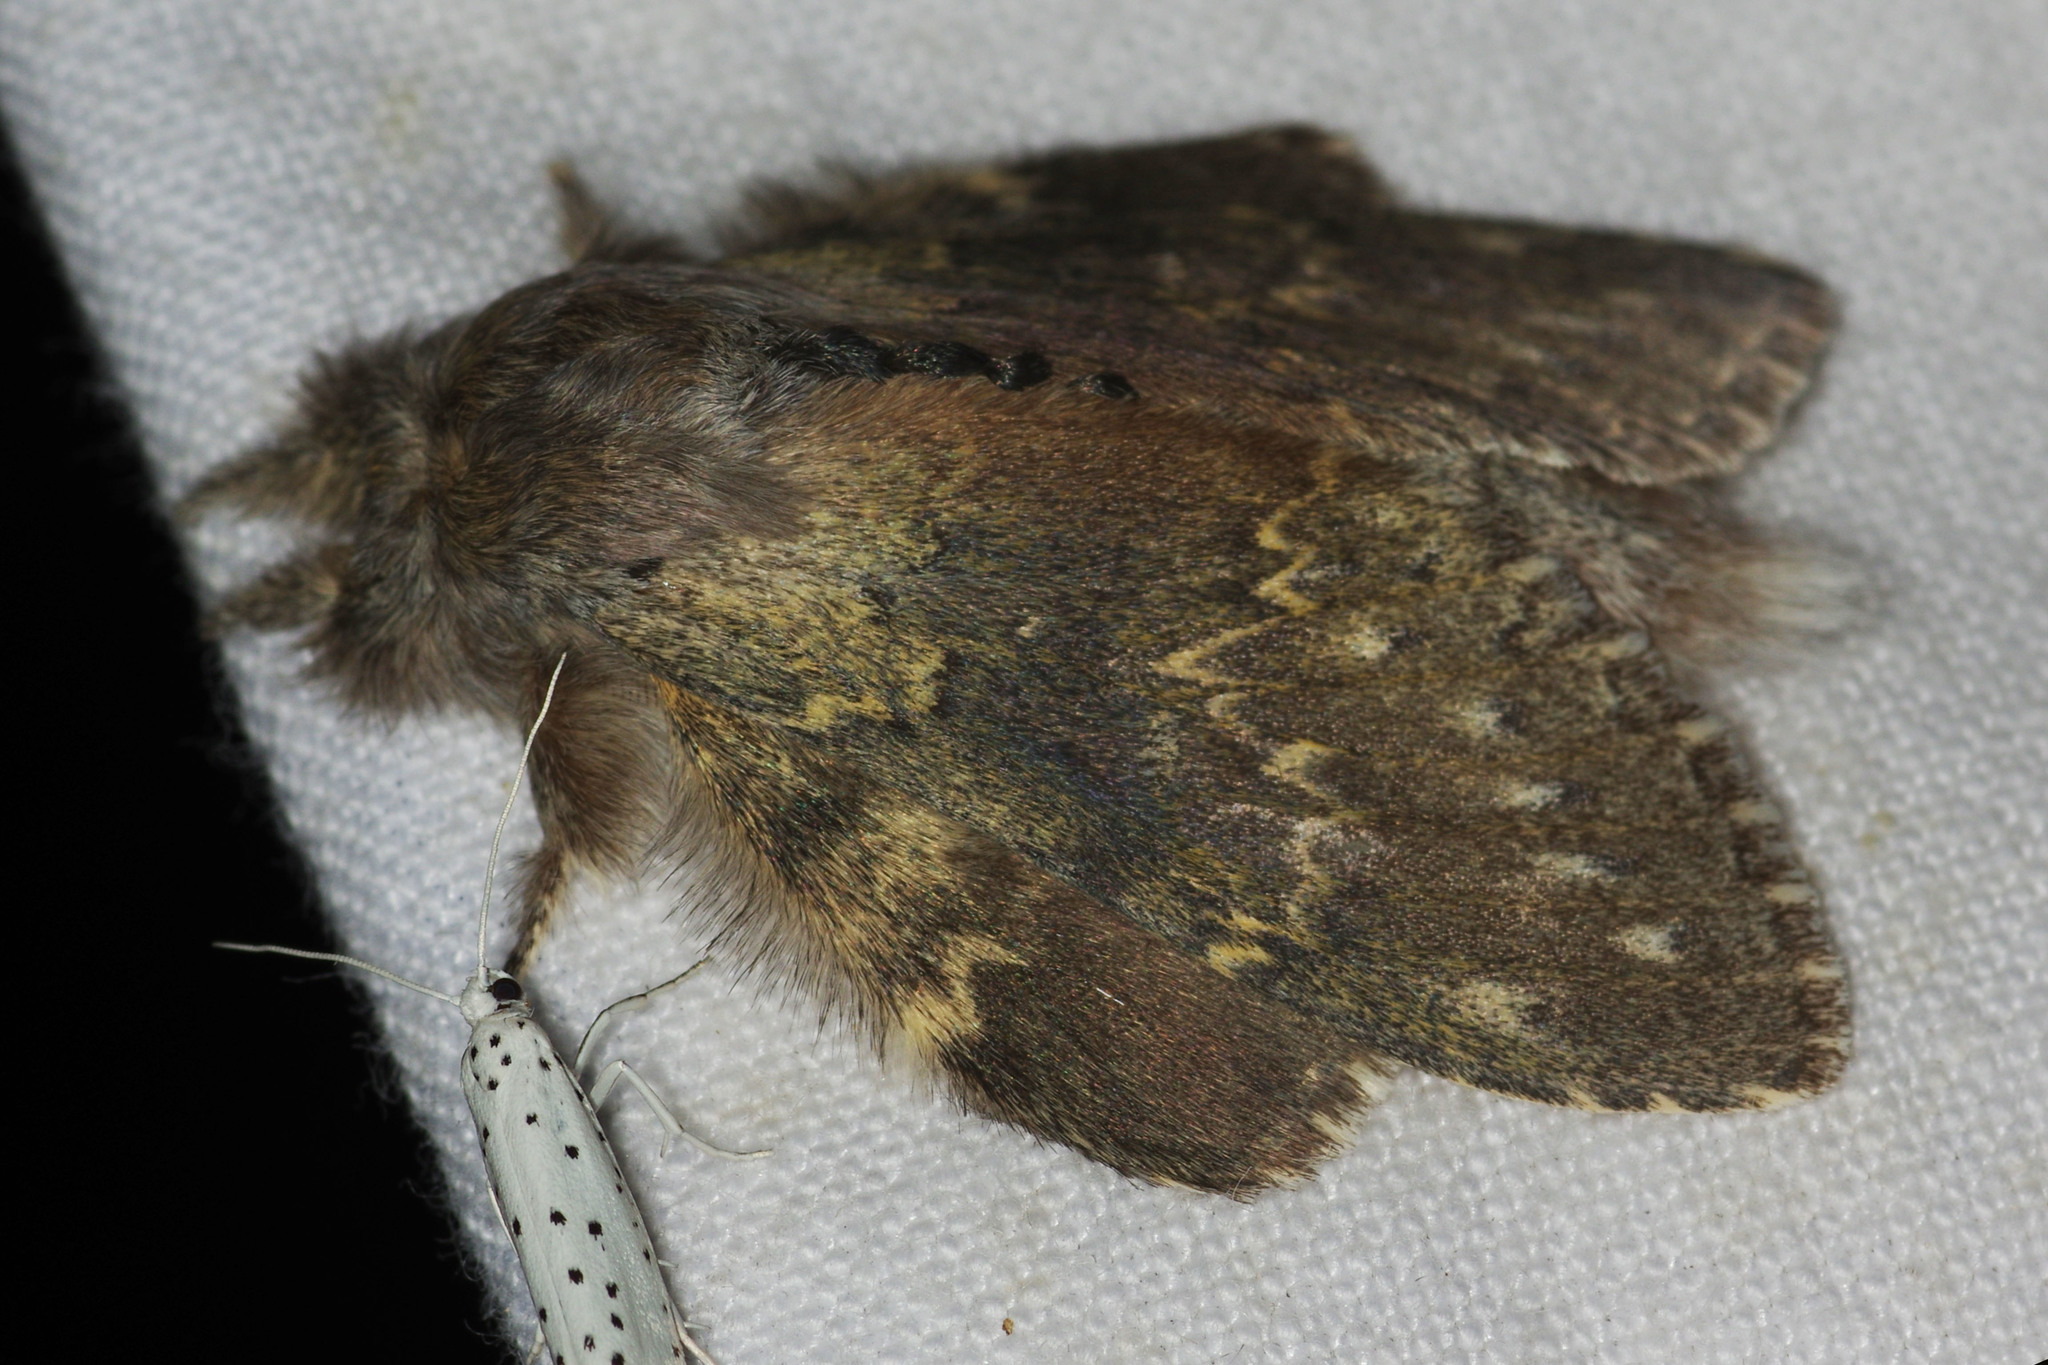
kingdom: Animalia
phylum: Arthropoda
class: Insecta
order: Lepidoptera
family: Notodontidae
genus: Stauropus
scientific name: Stauropus fagi
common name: Lobster moth
